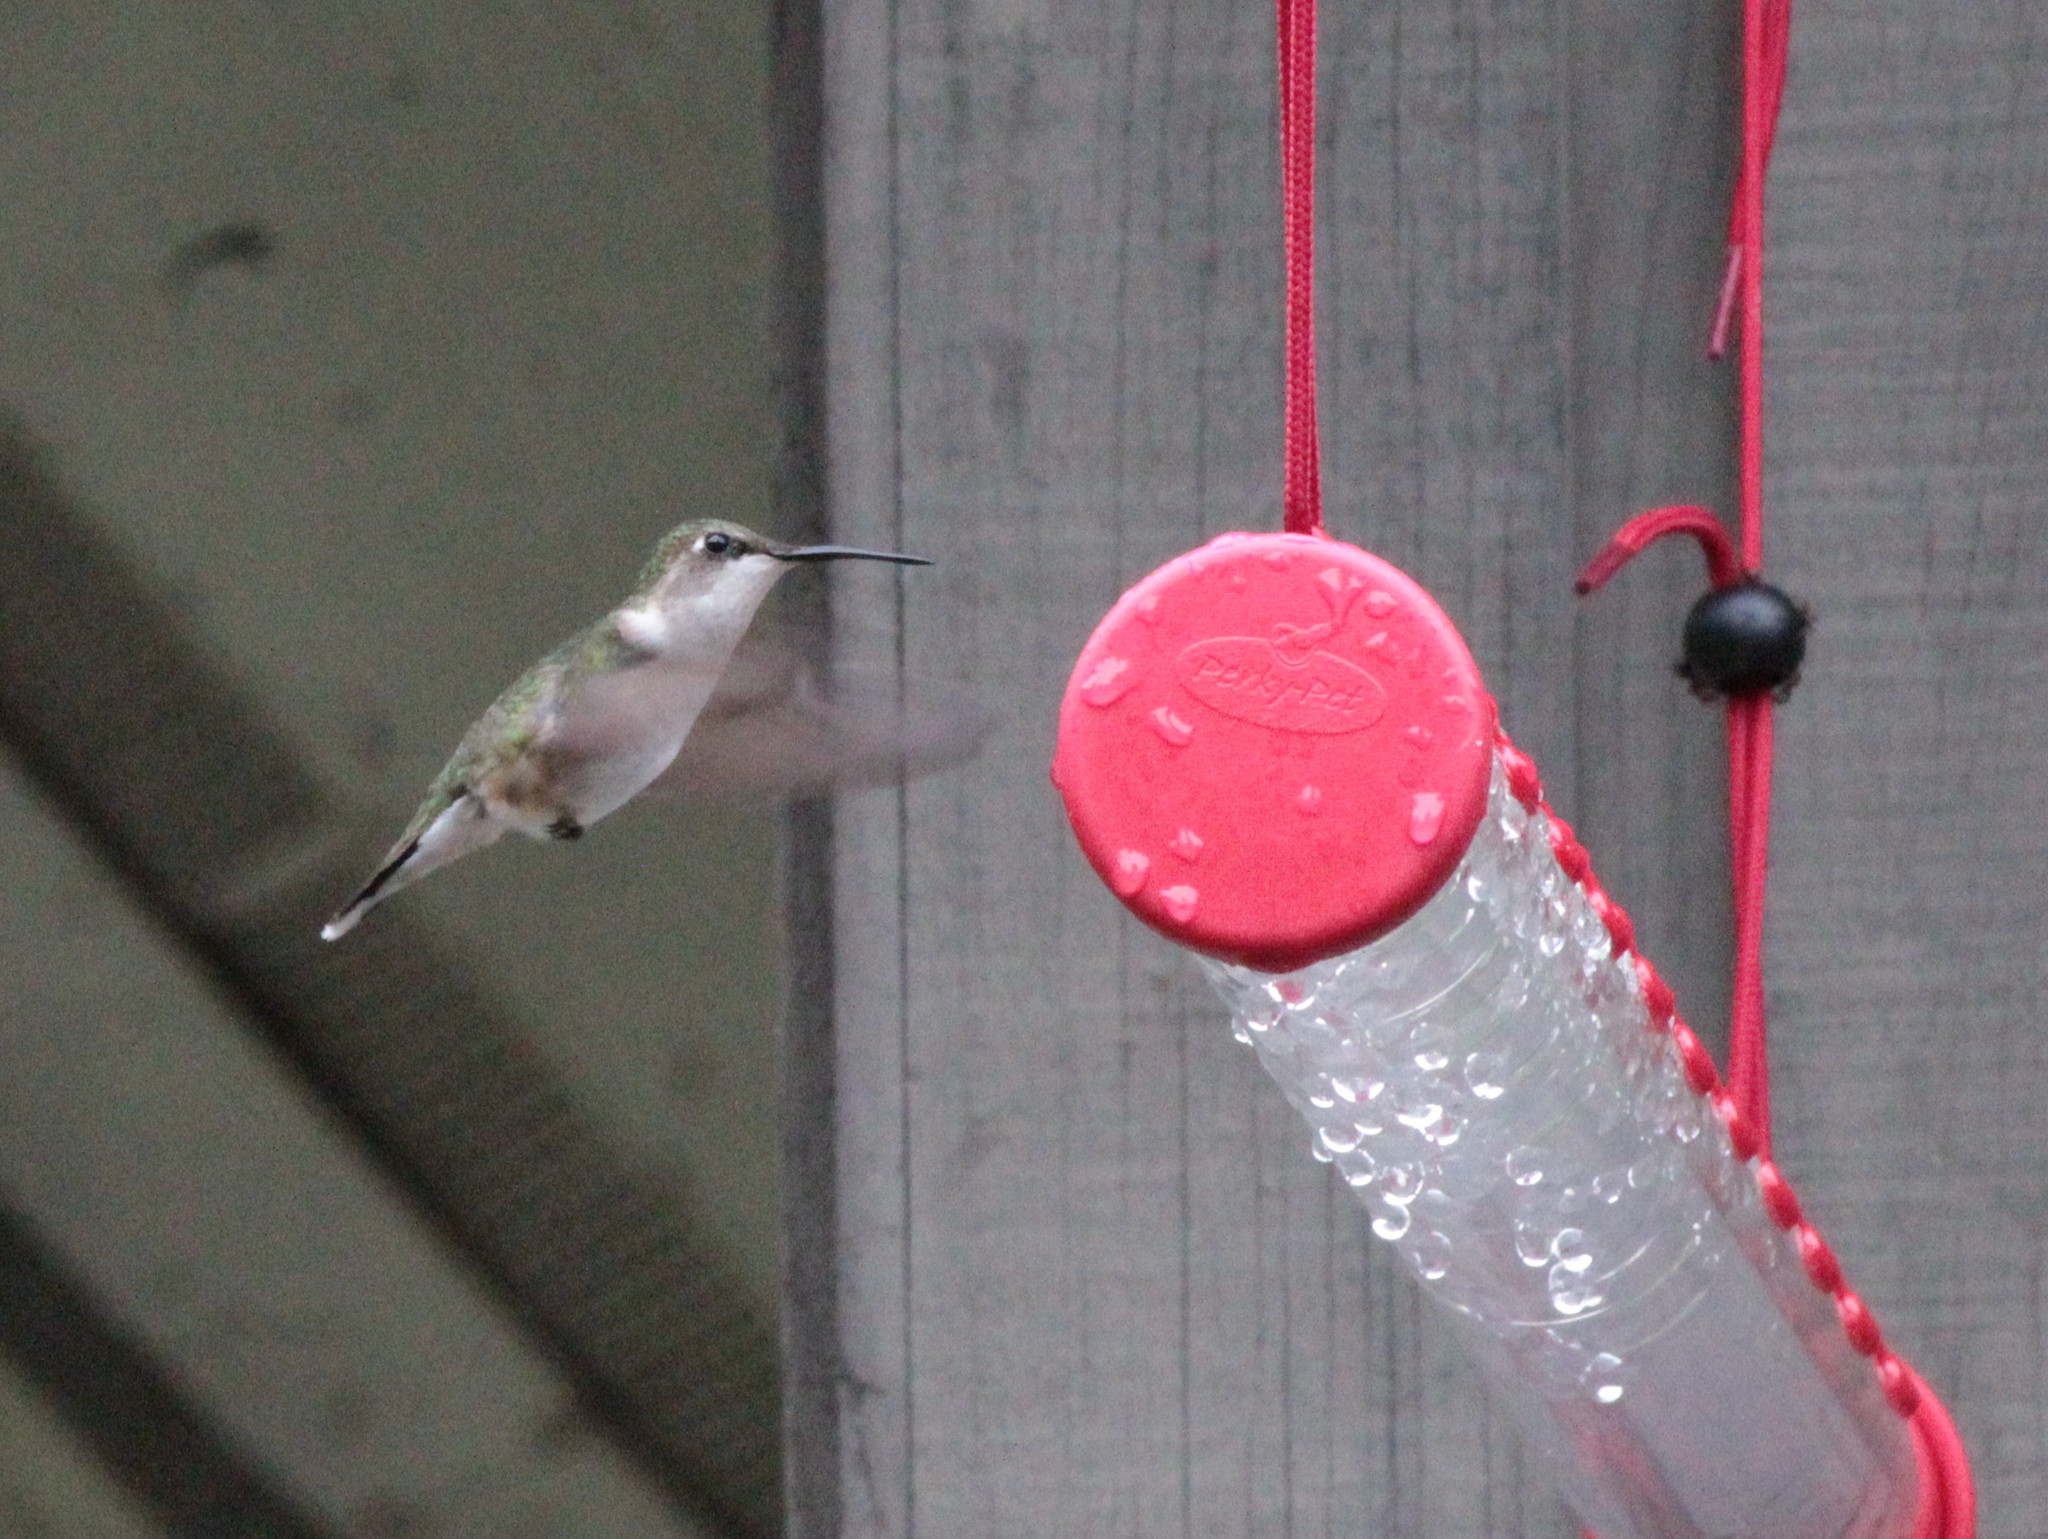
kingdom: Animalia
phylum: Chordata
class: Aves
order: Apodiformes
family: Trochilidae
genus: Archilochus
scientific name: Archilochus colubris
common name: Ruby-throated hummingbird
